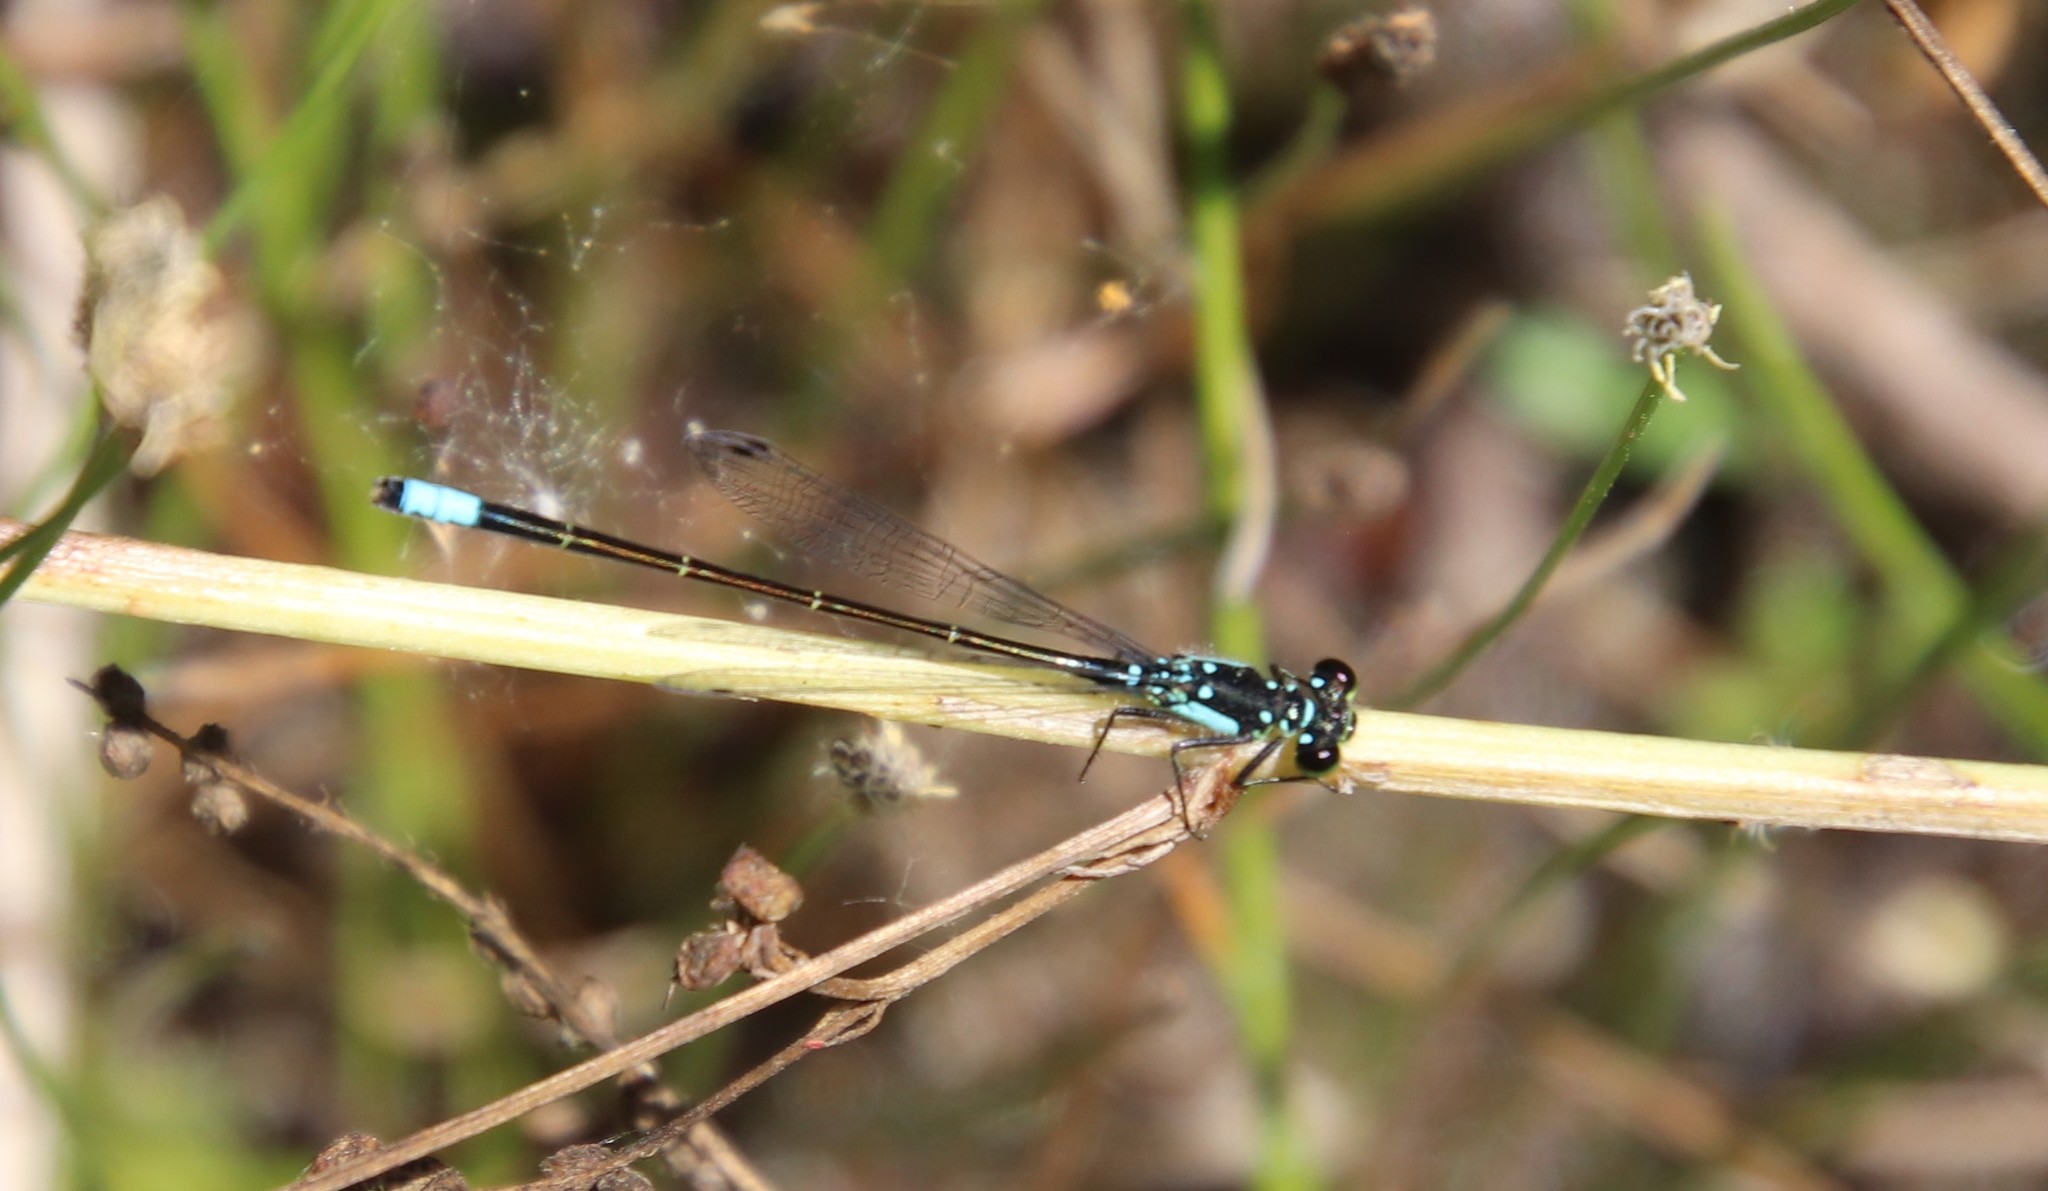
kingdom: Animalia
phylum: Arthropoda
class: Insecta
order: Odonata
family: Coenagrionidae
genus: Ischnura
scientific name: Ischnura cervula
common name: Pacific forktail
